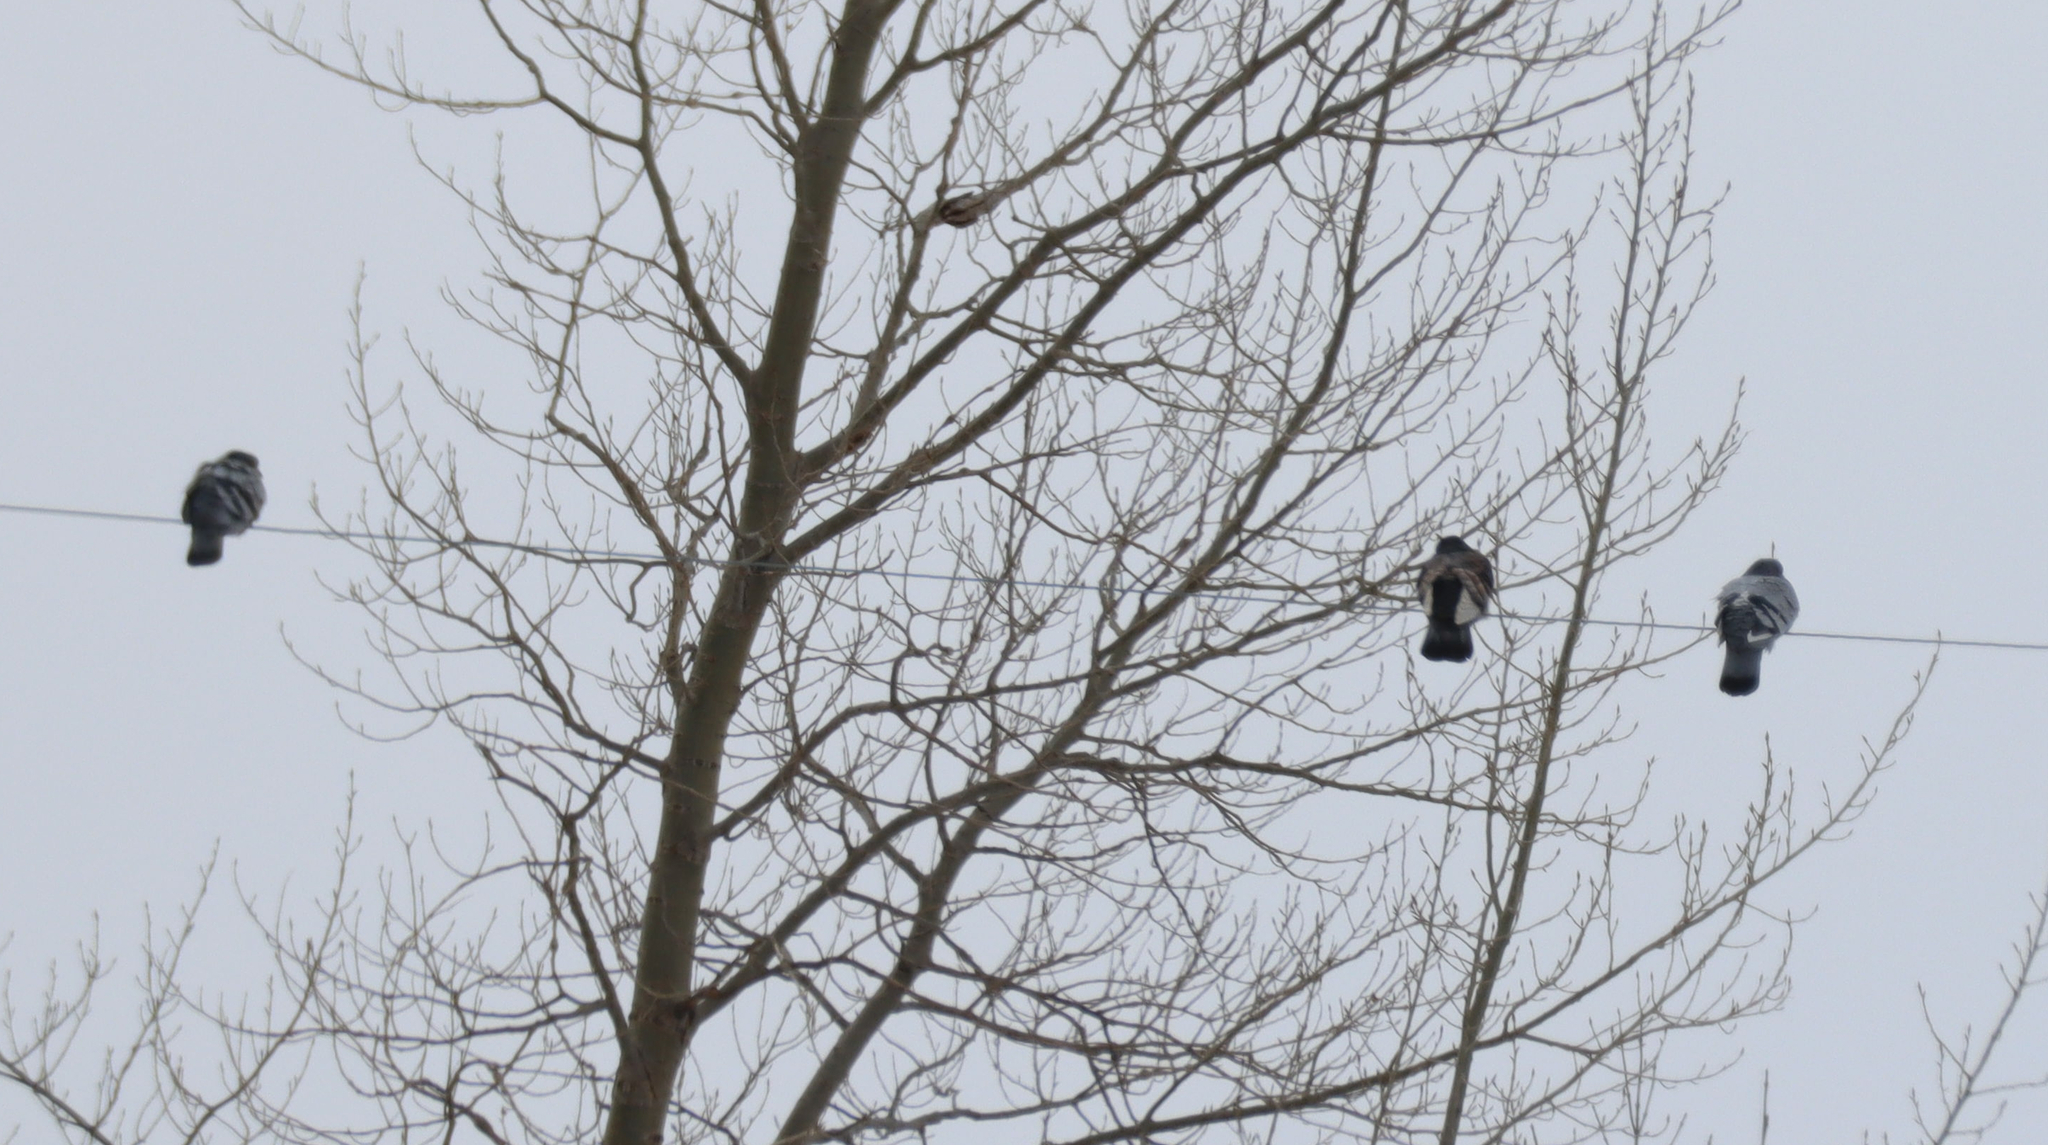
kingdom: Animalia
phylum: Chordata
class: Aves
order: Columbiformes
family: Columbidae
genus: Columba
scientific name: Columba livia
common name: Rock pigeon
